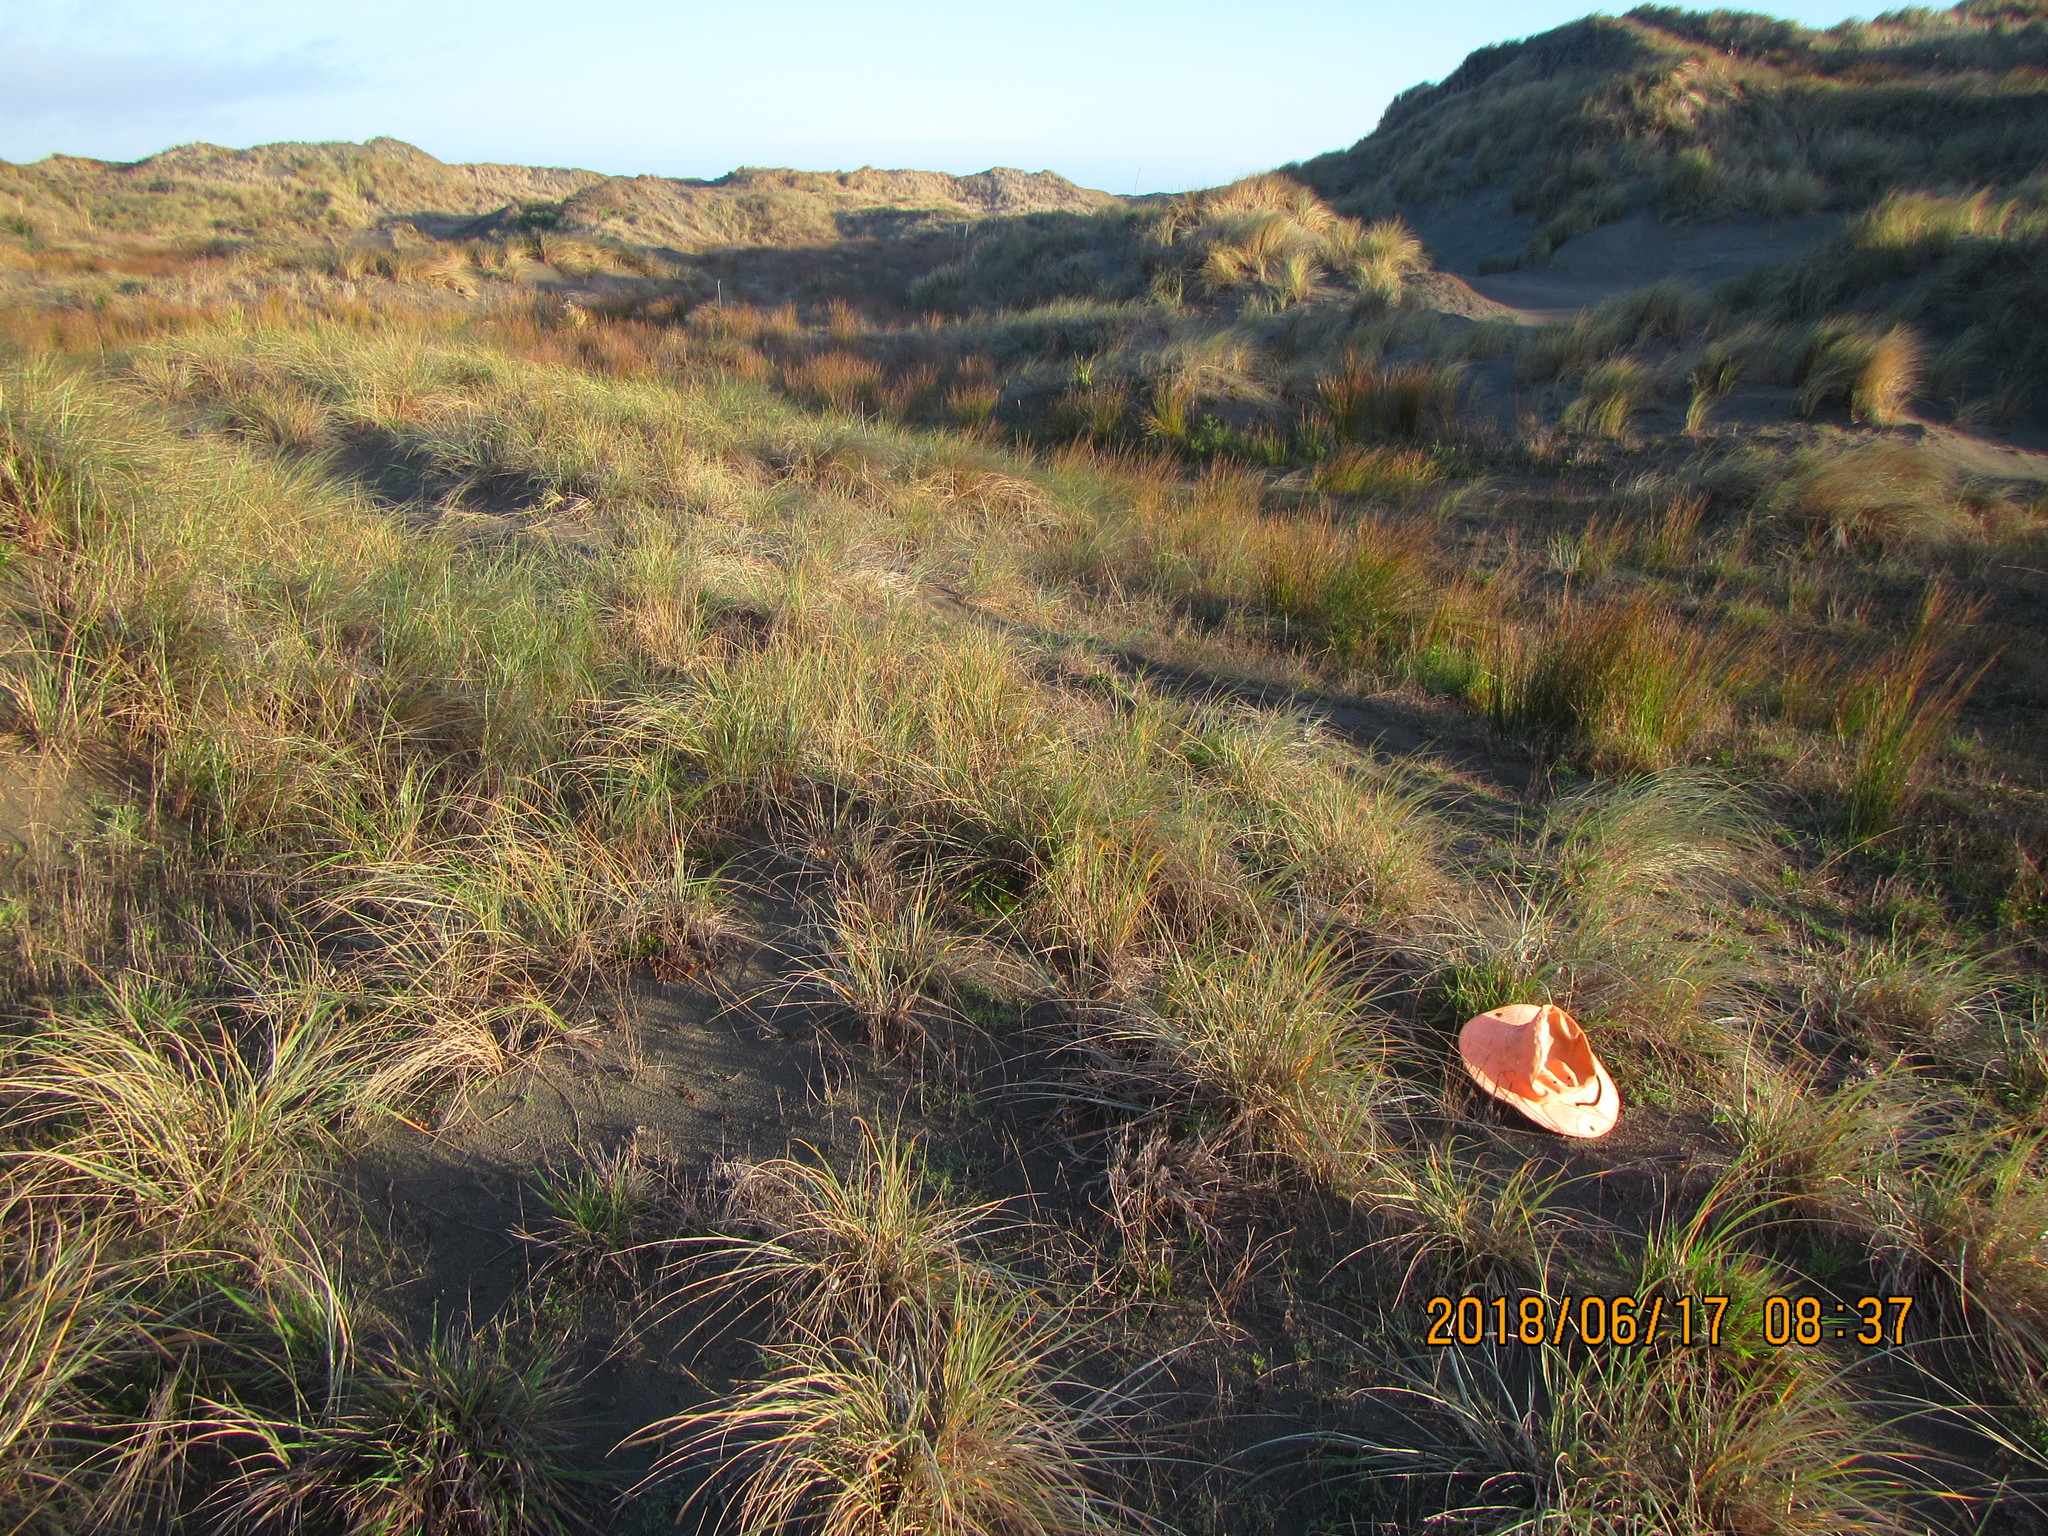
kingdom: Plantae
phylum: Tracheophyta
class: Liliopsida
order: Poales
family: Poaceae
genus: Lachnagrostis
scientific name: Lachnagrostis billardierei
